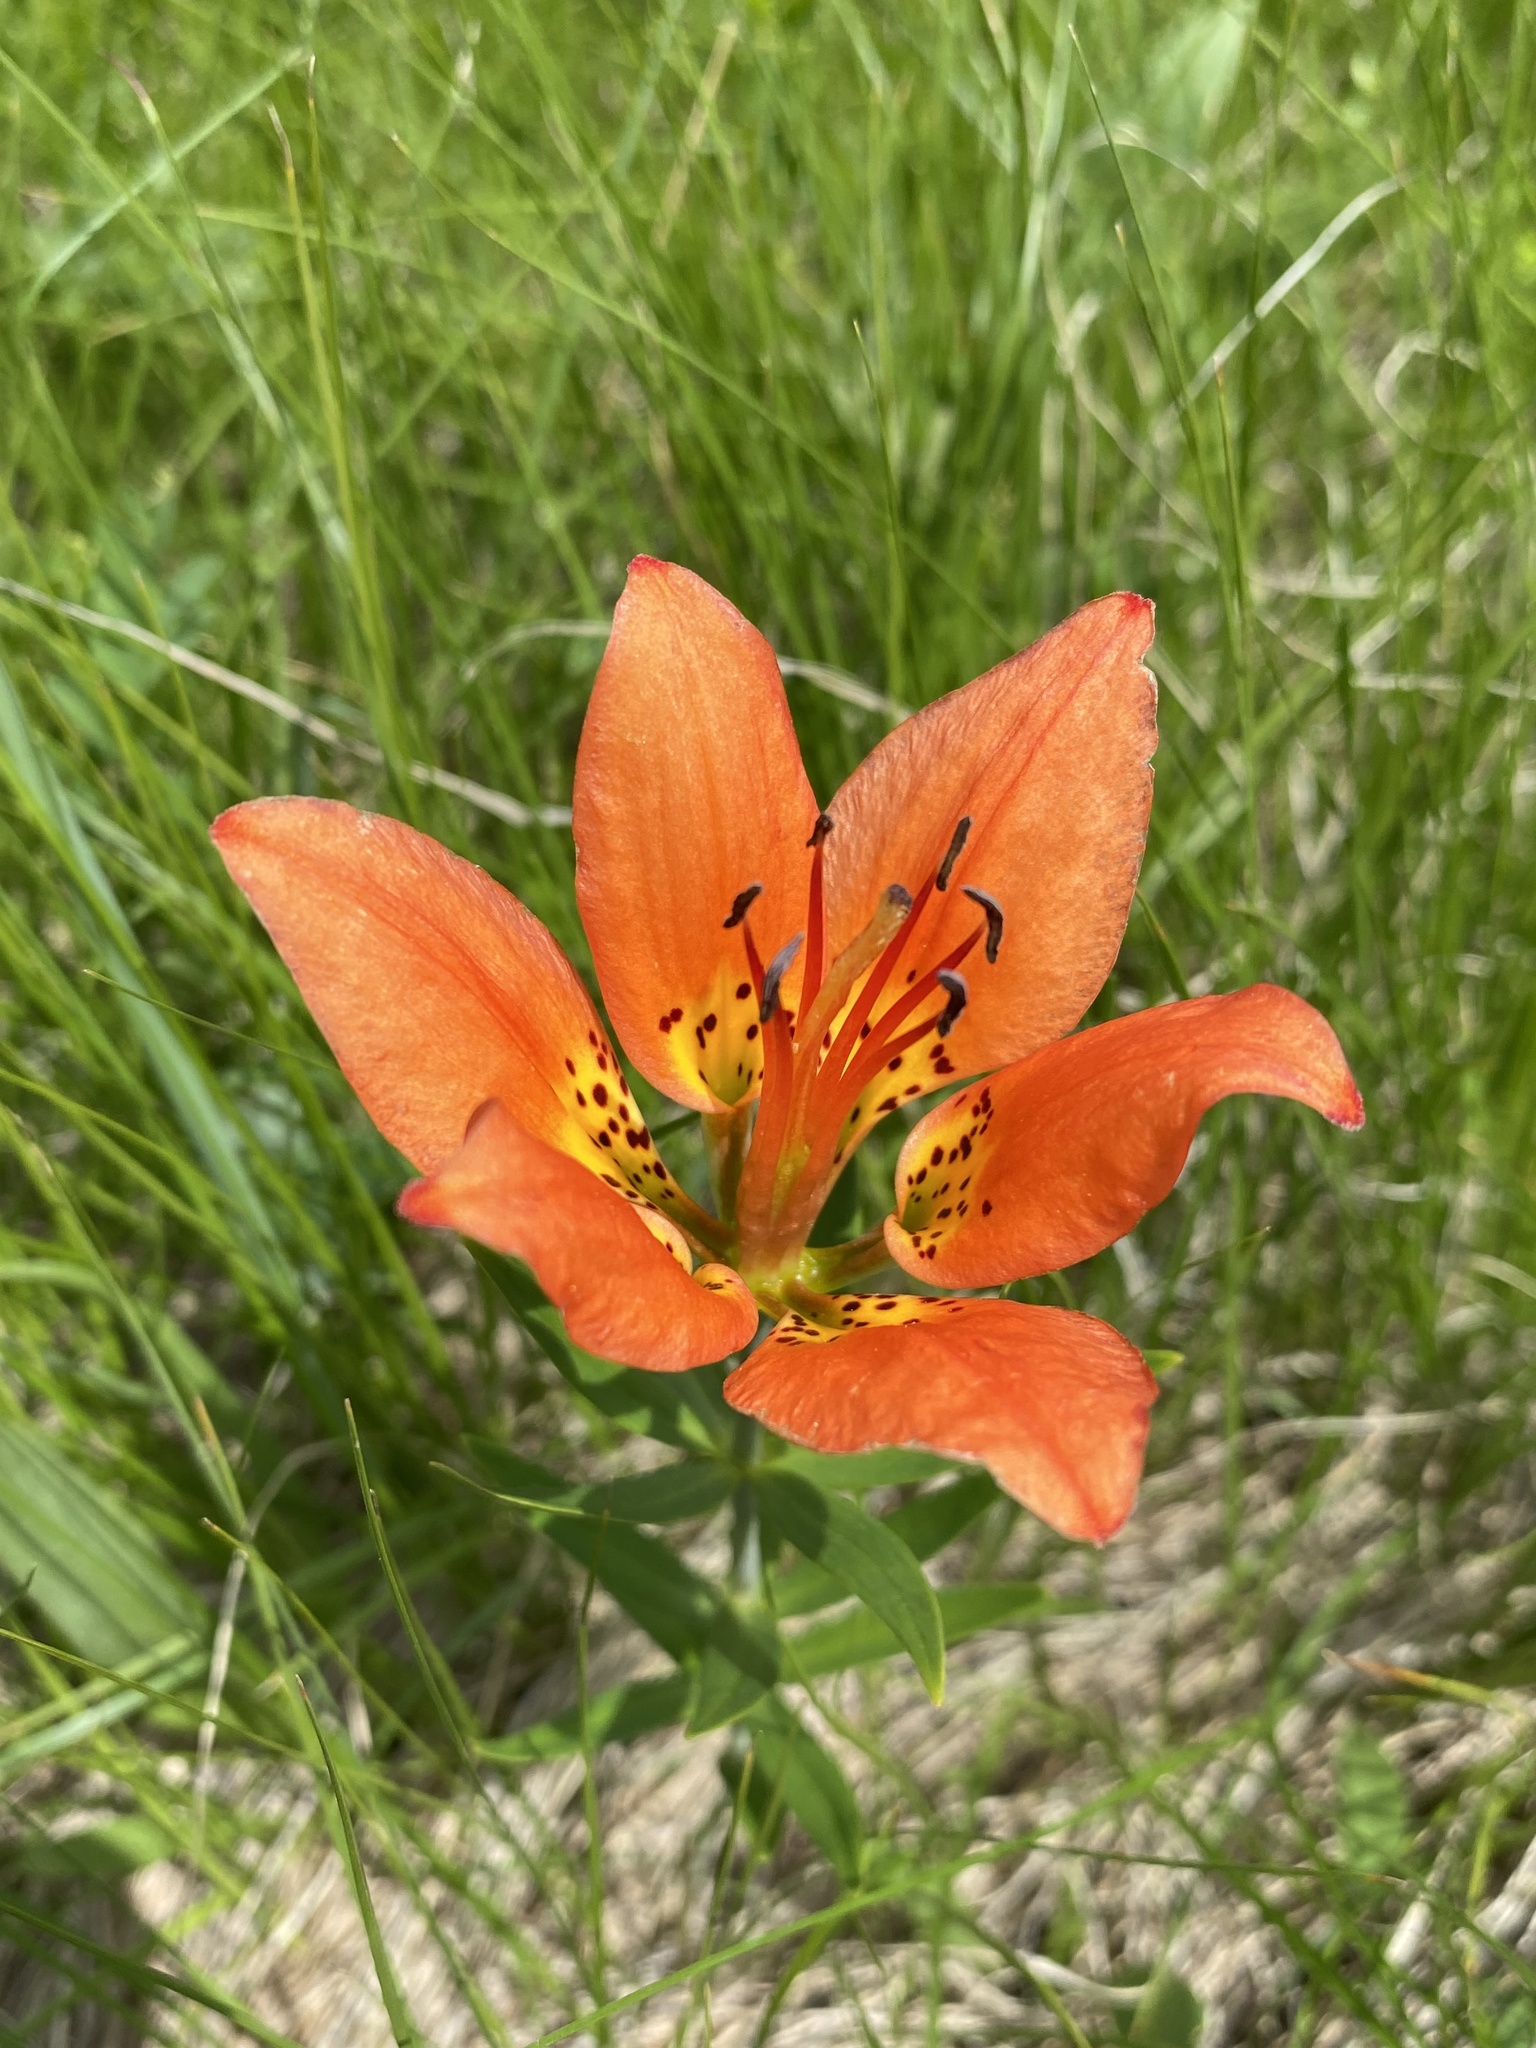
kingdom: Plantae
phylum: Tracheophyta
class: Liliopsida
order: Liliales
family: Liliaceae
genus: Lilium
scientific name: Lilium philadelphicum
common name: Red lily
